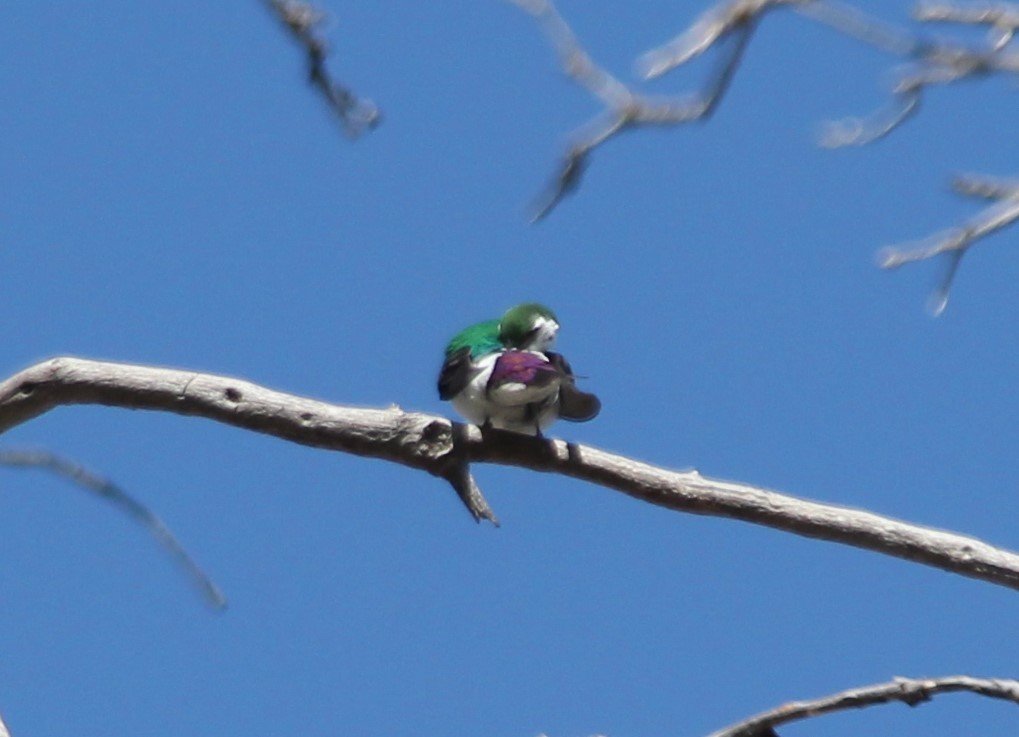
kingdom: Animalia
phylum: Chordata
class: Aves
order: Passeriformes
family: Hirundinidae
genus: Tachycineta
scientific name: Tachycineta thalassina
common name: Violet-green swallow
